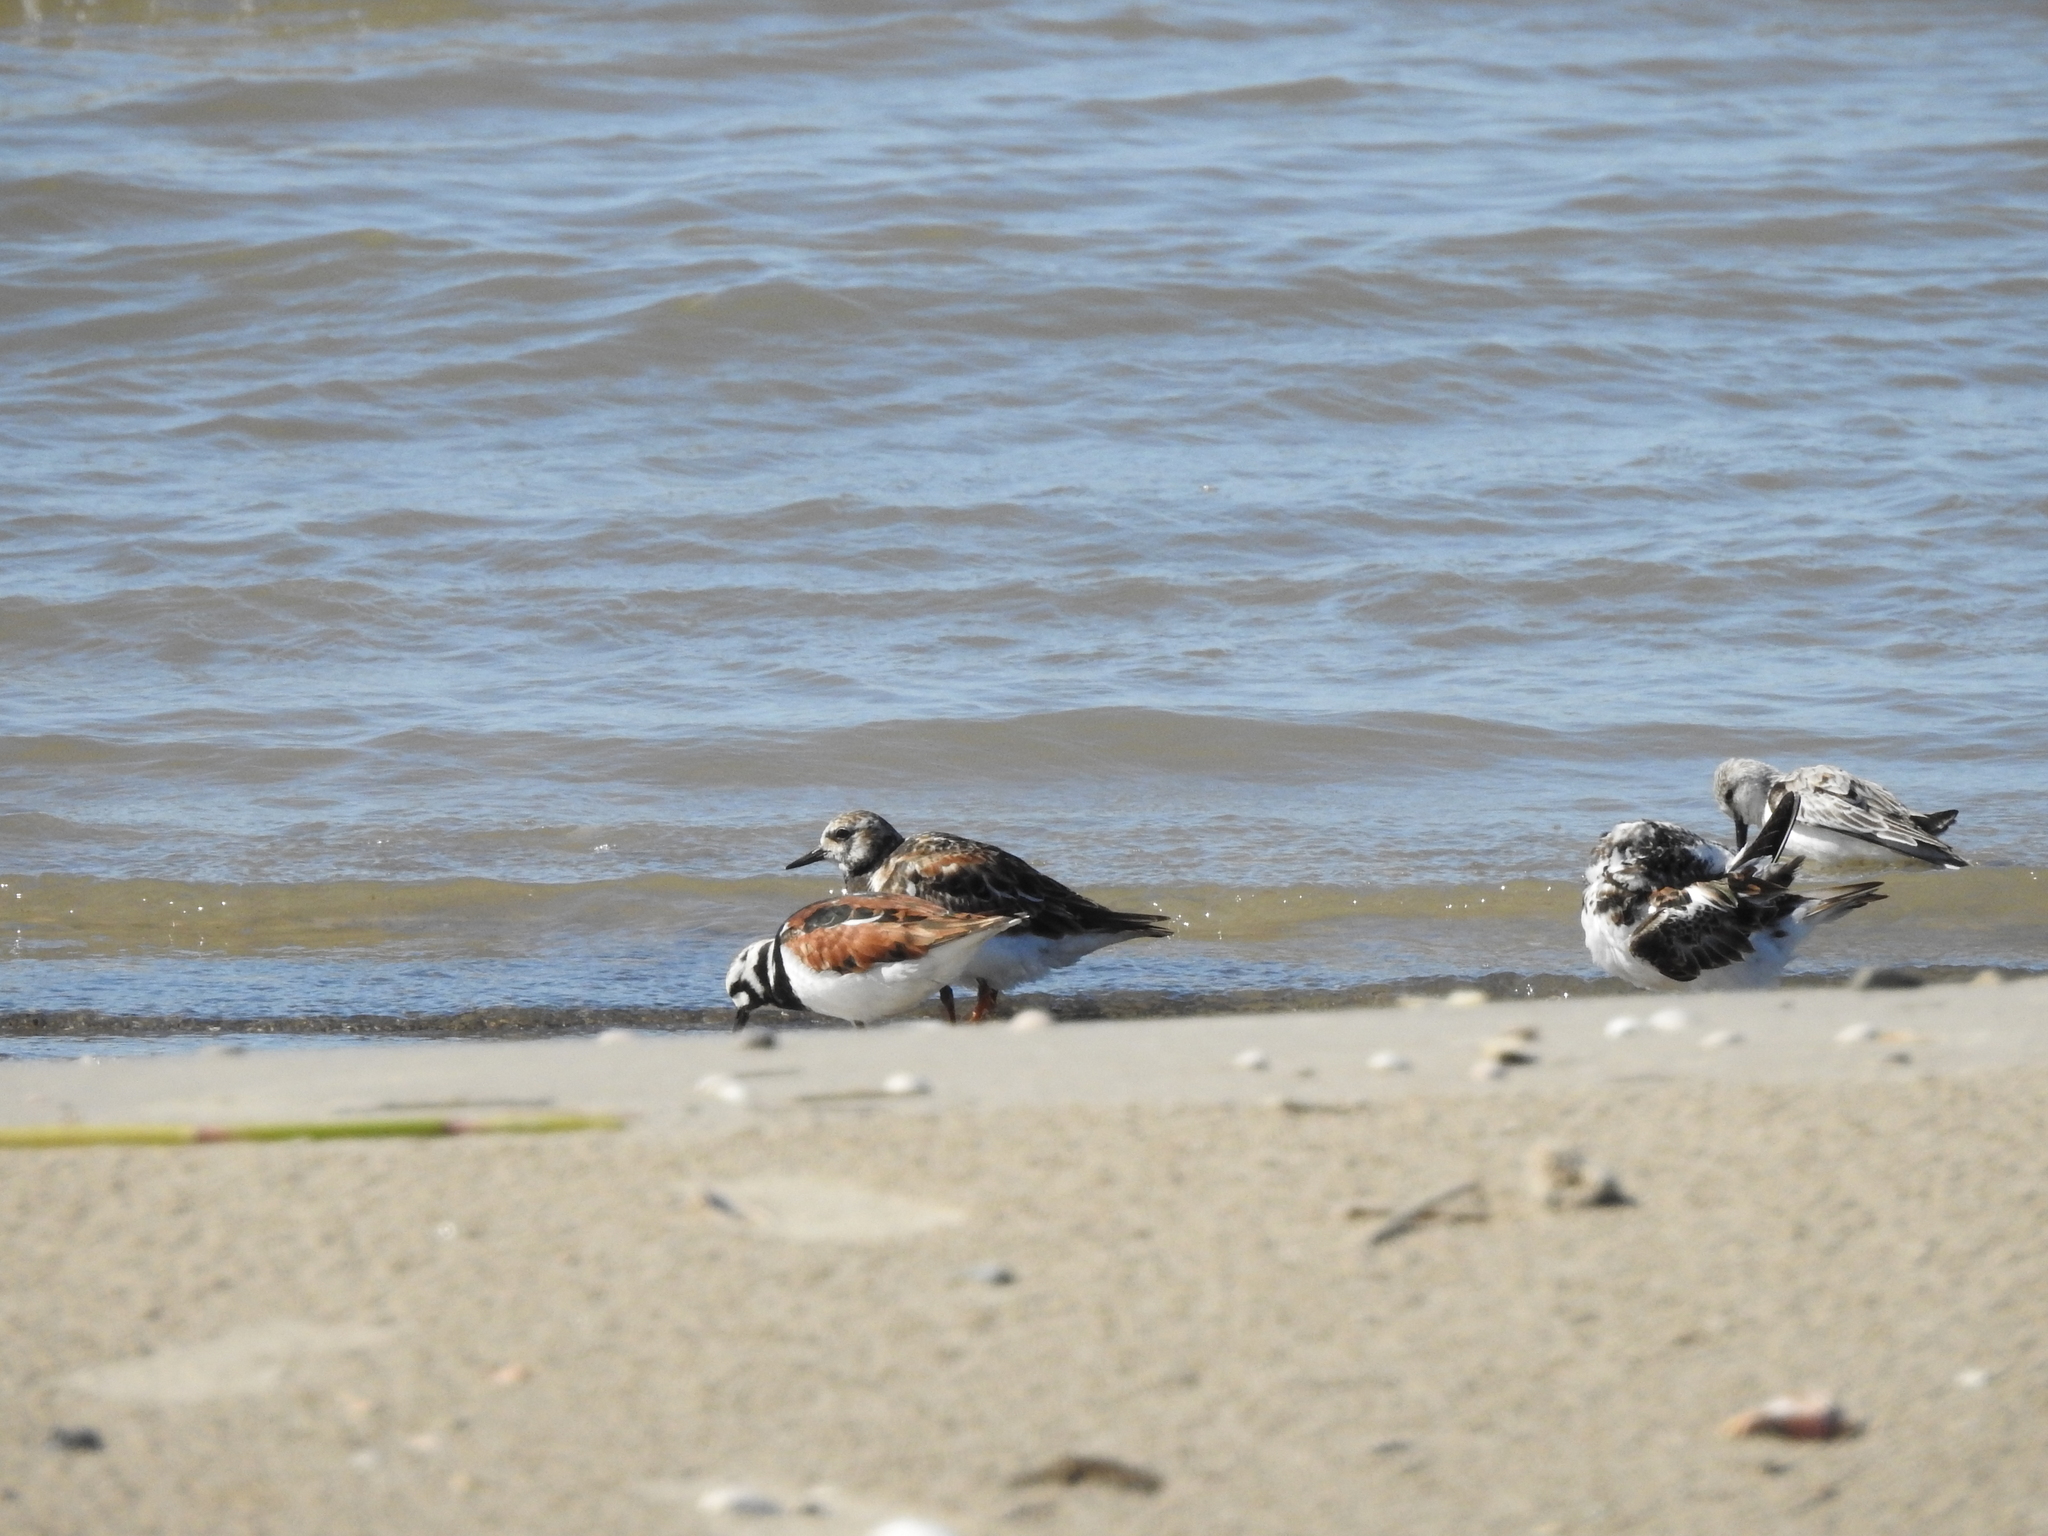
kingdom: Animalia
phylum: Chordata
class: Aves
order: Charadriiformes
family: Scolopacidae
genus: Arenaria
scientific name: Arenaria interpres
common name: Ruddy turnstone
